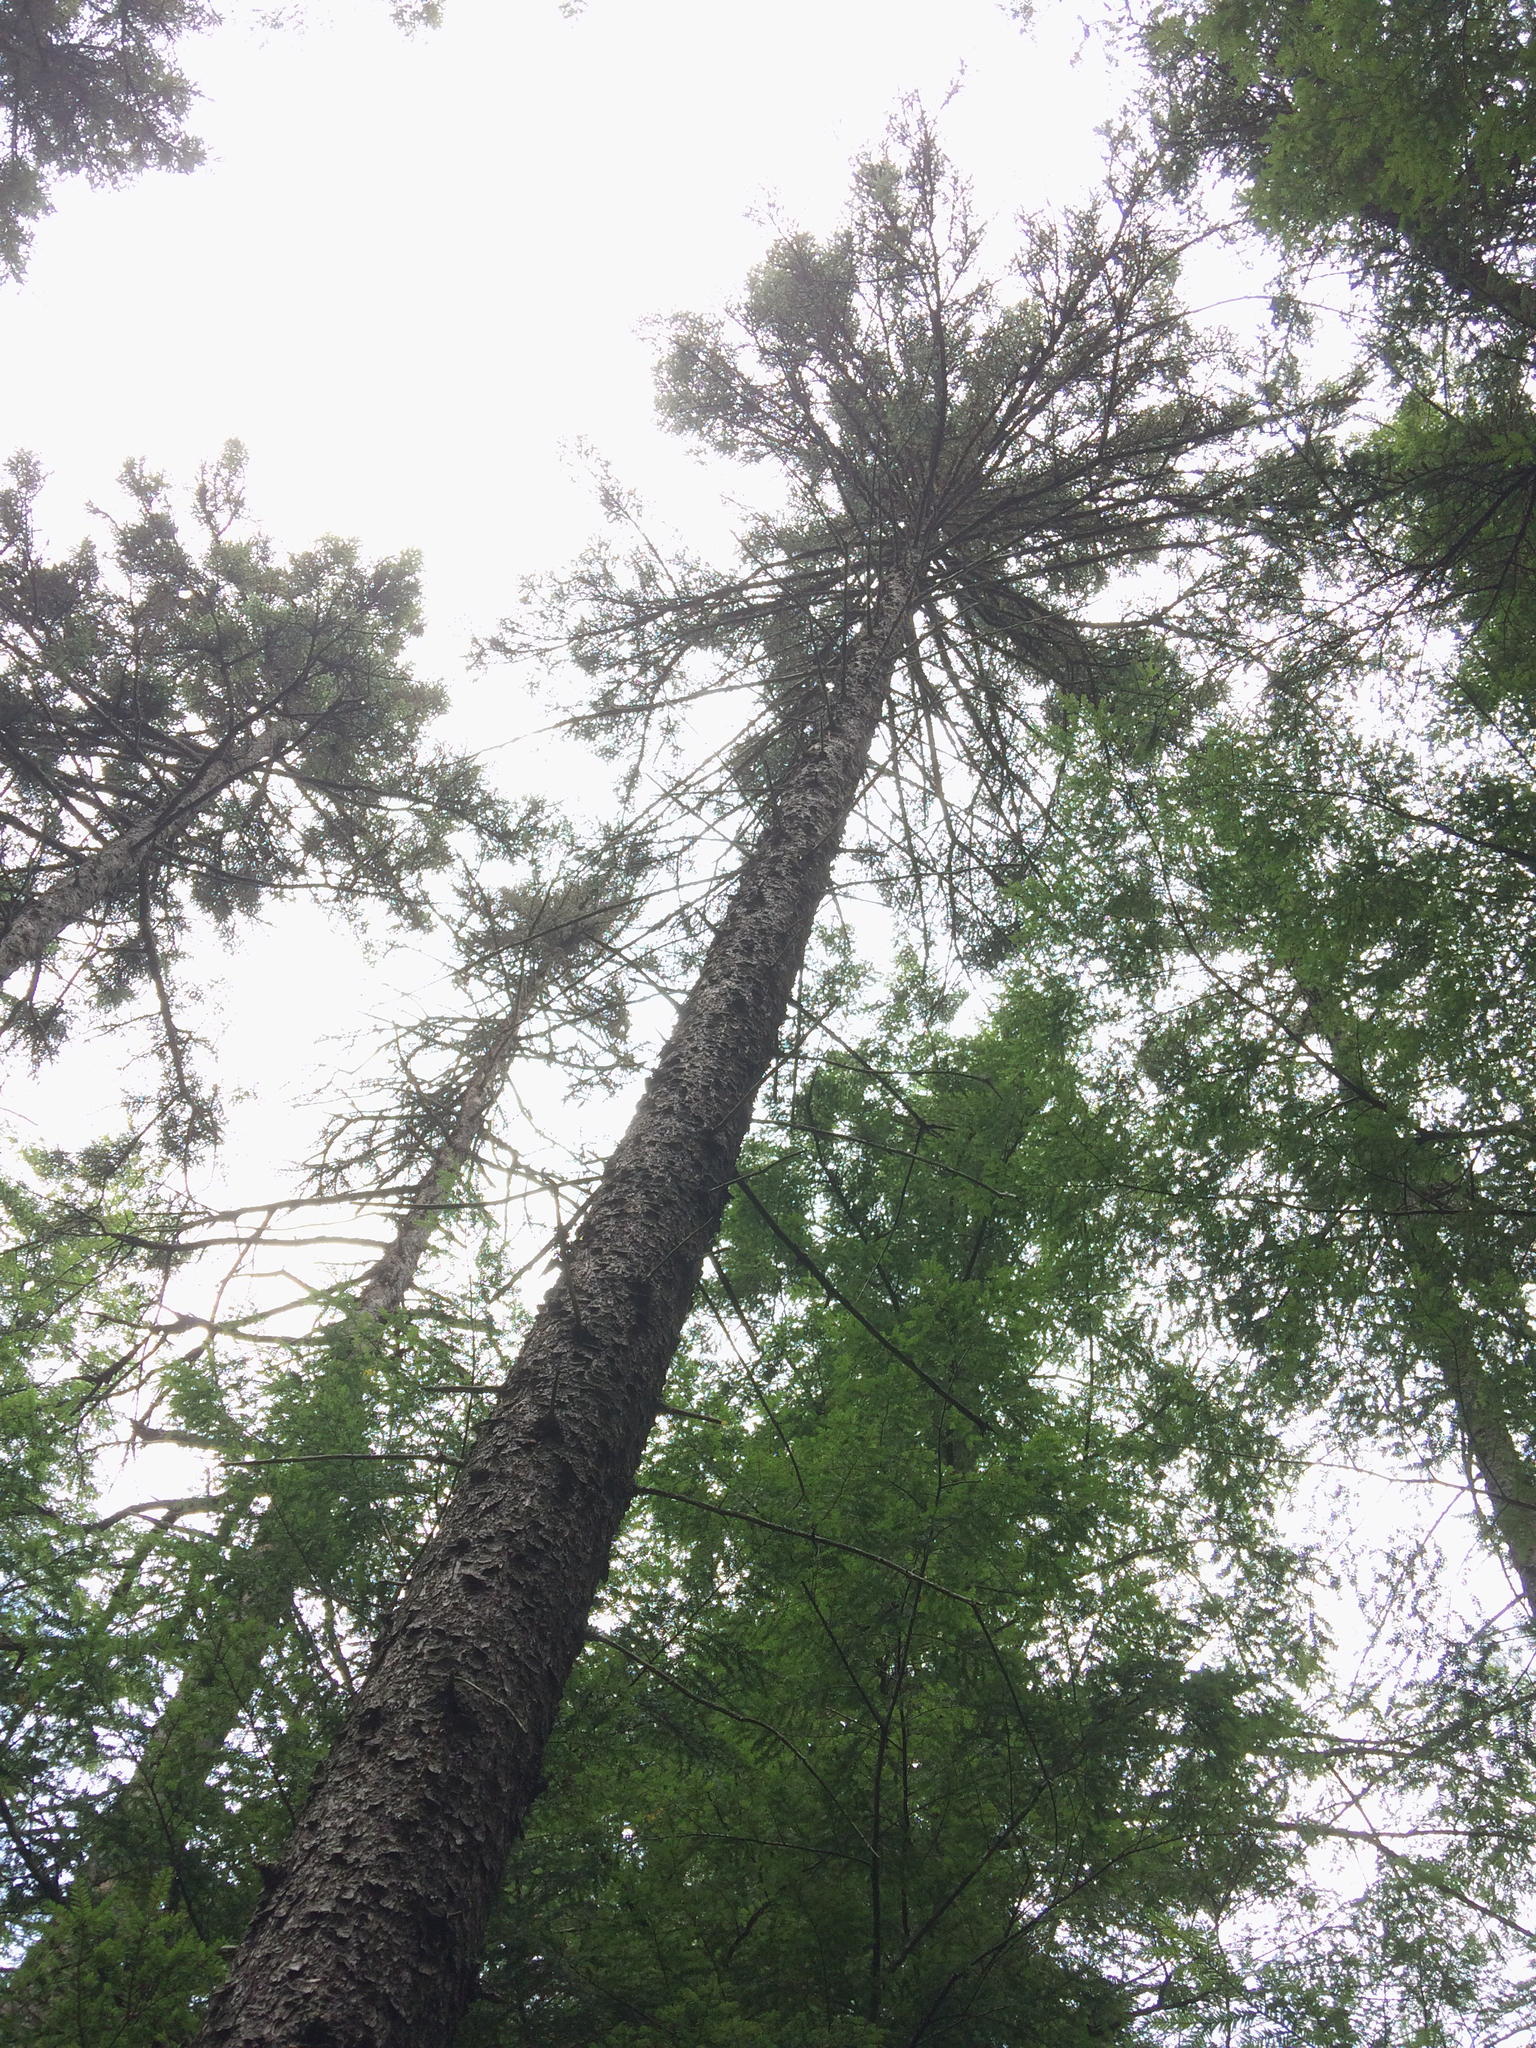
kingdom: Plantae
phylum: Tracheophyta
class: Pinopsida
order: Pinales
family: Pinaceae
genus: Picea
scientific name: Picea rubens
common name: Red spruce
